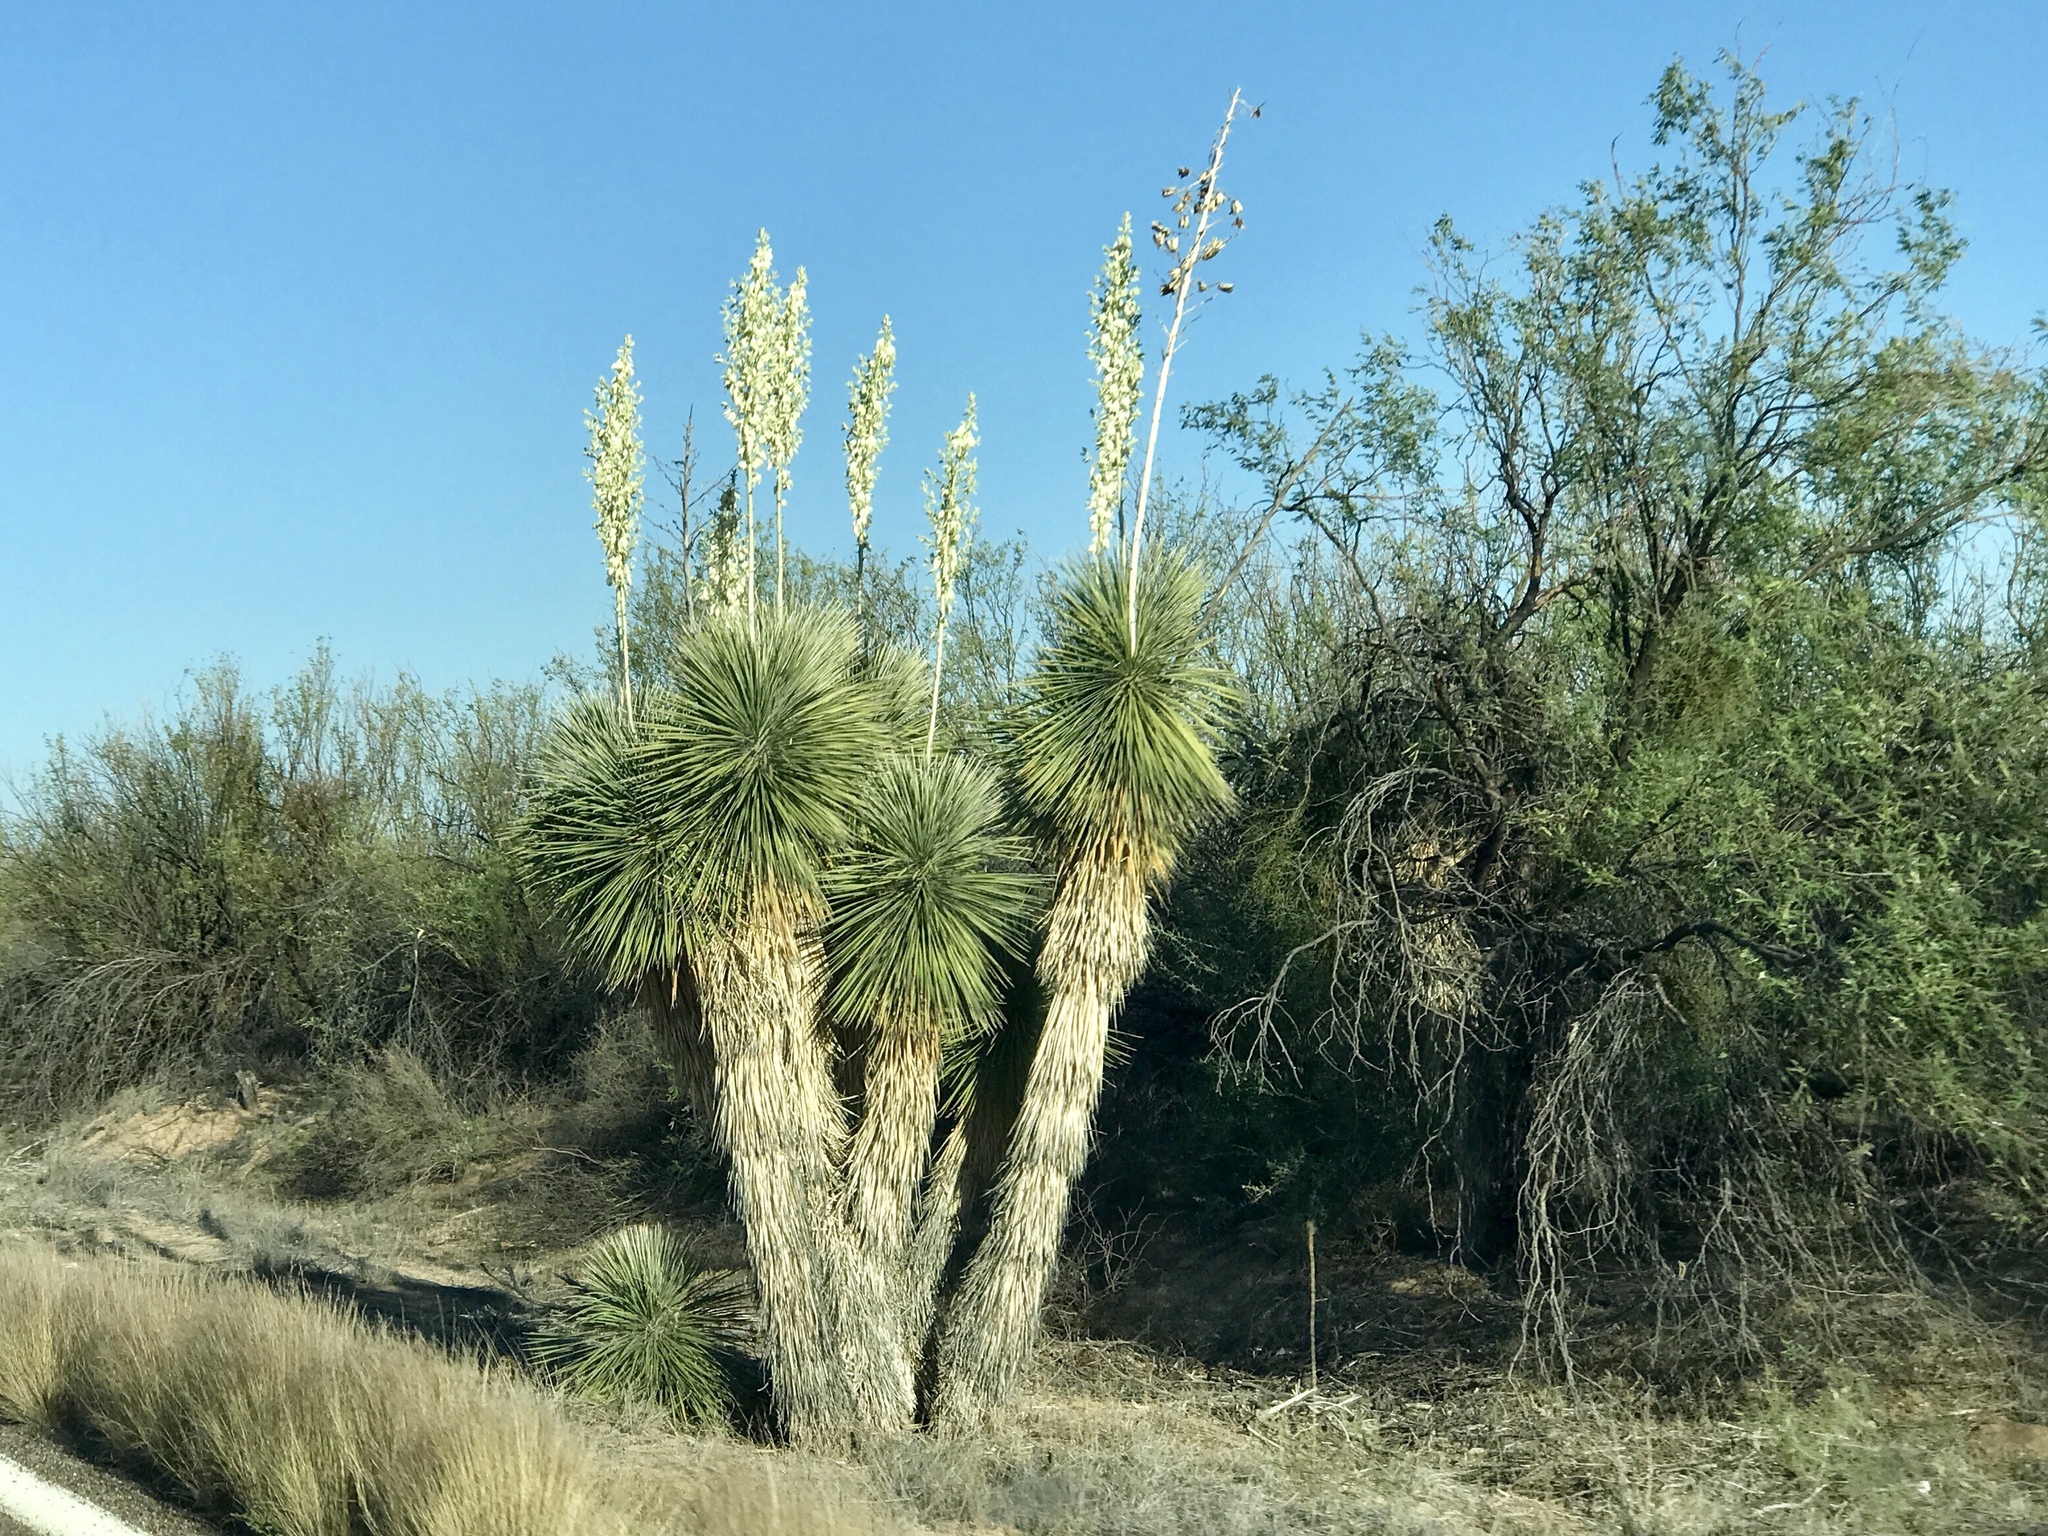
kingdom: Plantae
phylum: Tracheophyta
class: Liliopsida
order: Asparagales
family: Asparagaceae
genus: Yucca
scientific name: Yucca elata
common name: Palmella
